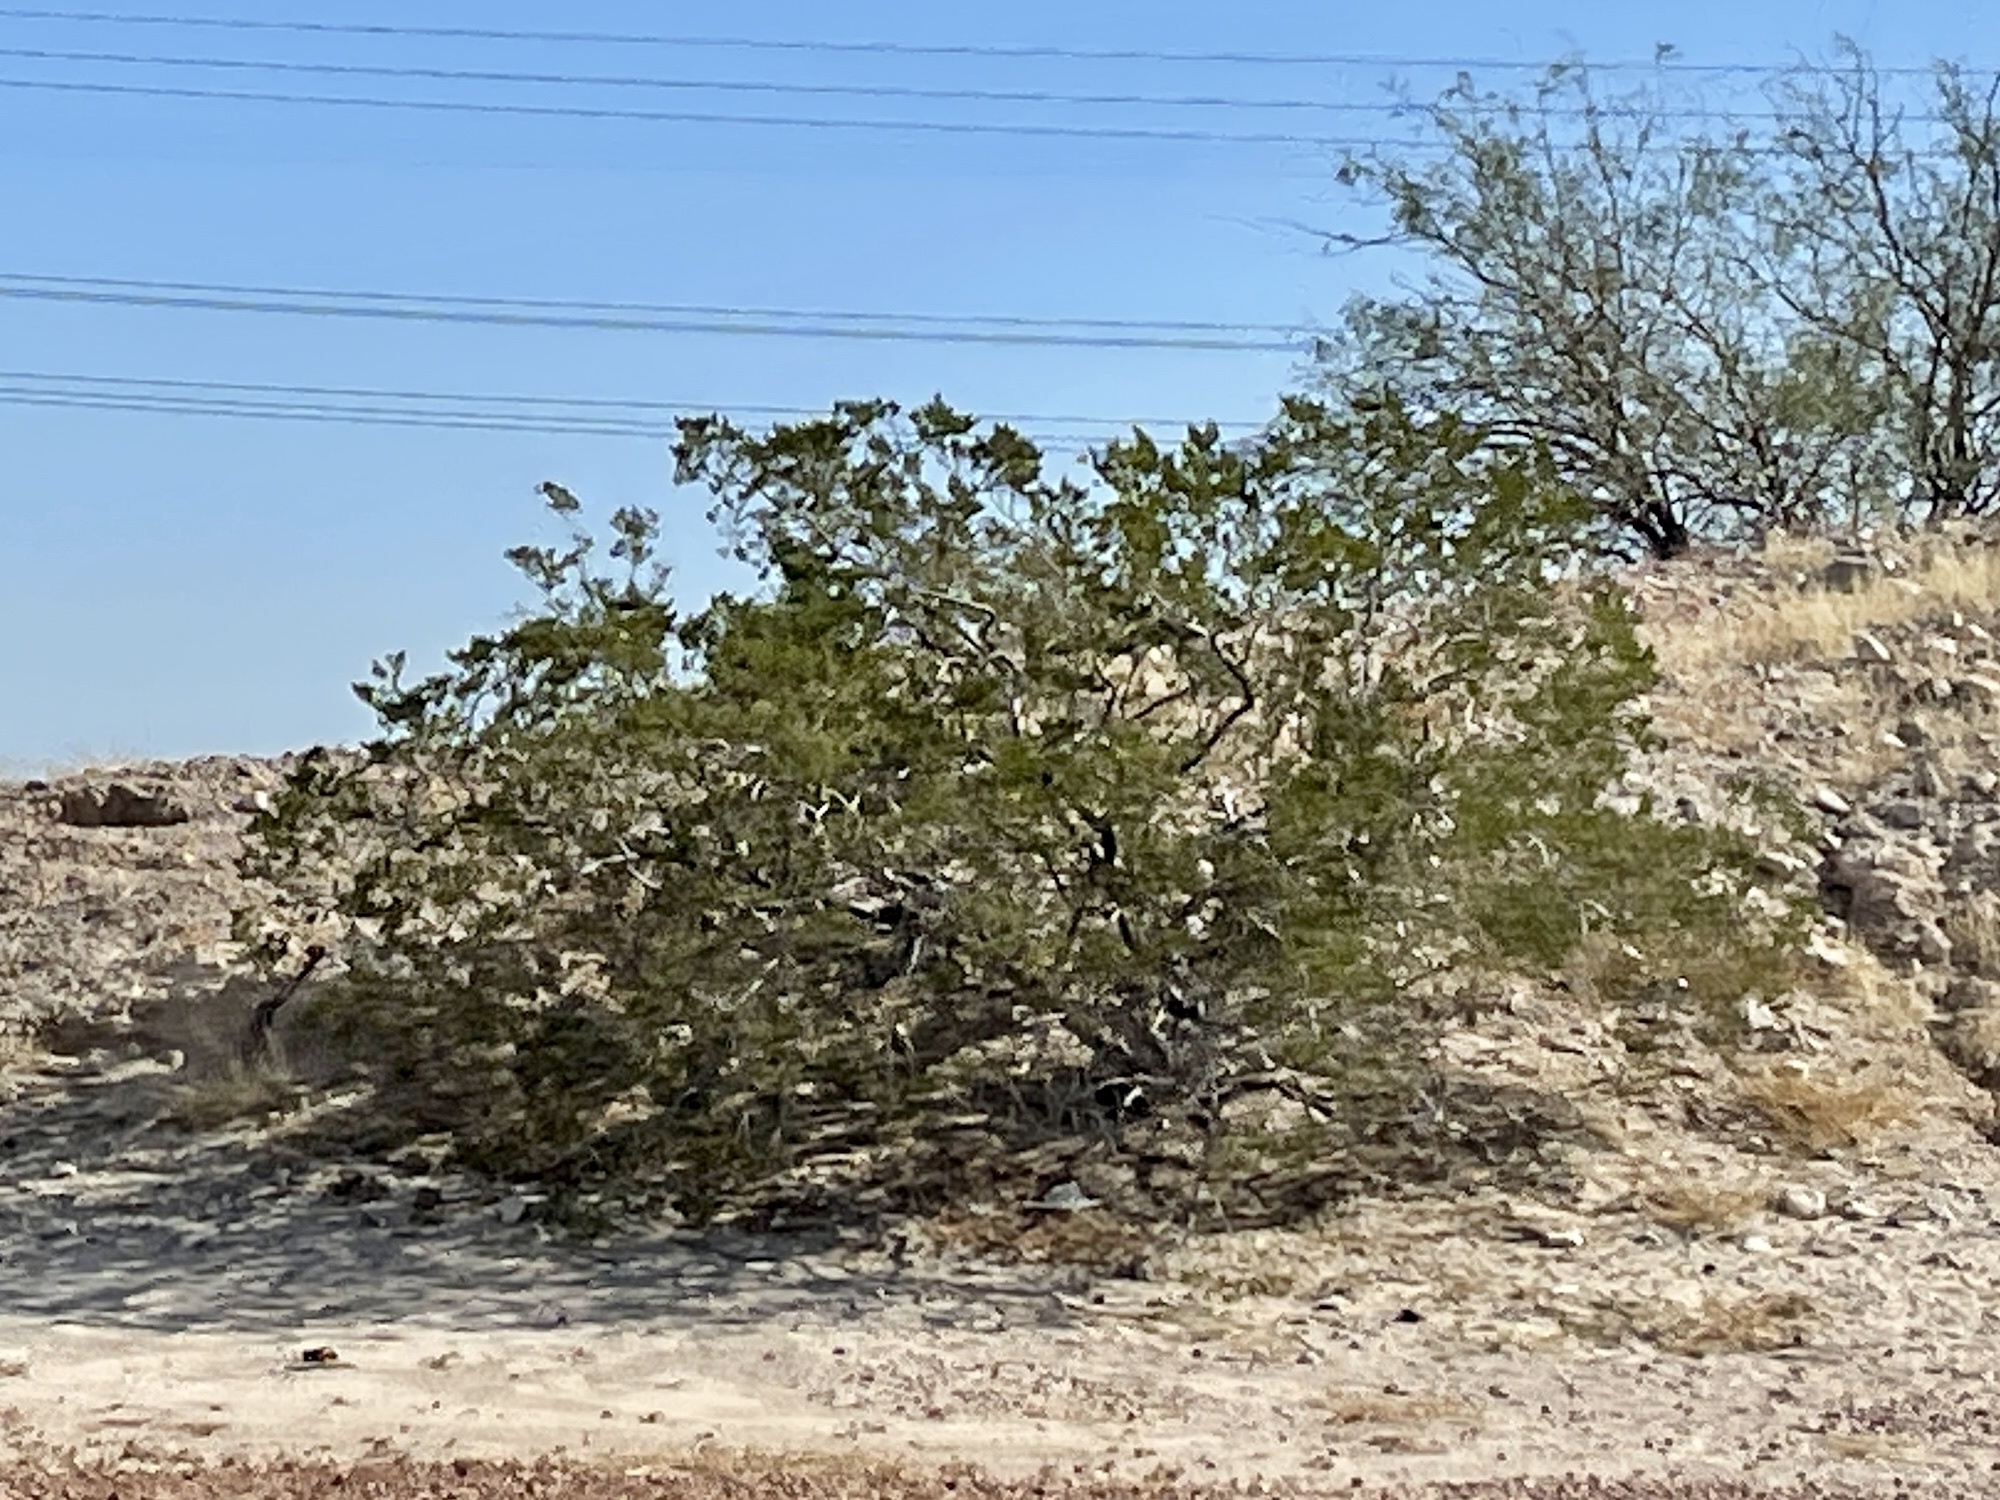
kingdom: Plantae
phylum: Tracheophyta
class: Magnoliopsida
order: Zygophyllales
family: Zygophyllaceae
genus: Larrea
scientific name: Larrea tridentata
